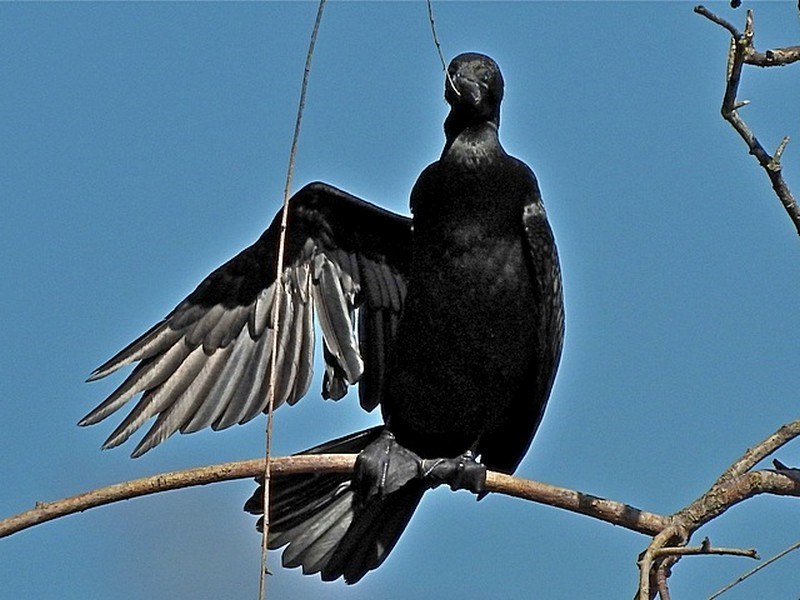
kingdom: Animalia
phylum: Chordata
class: Aves
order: Suliformes
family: Phalacrocoracidae
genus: Phalacrocorax
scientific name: Phalacrocorax sulcirostris
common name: Little black cormorant
